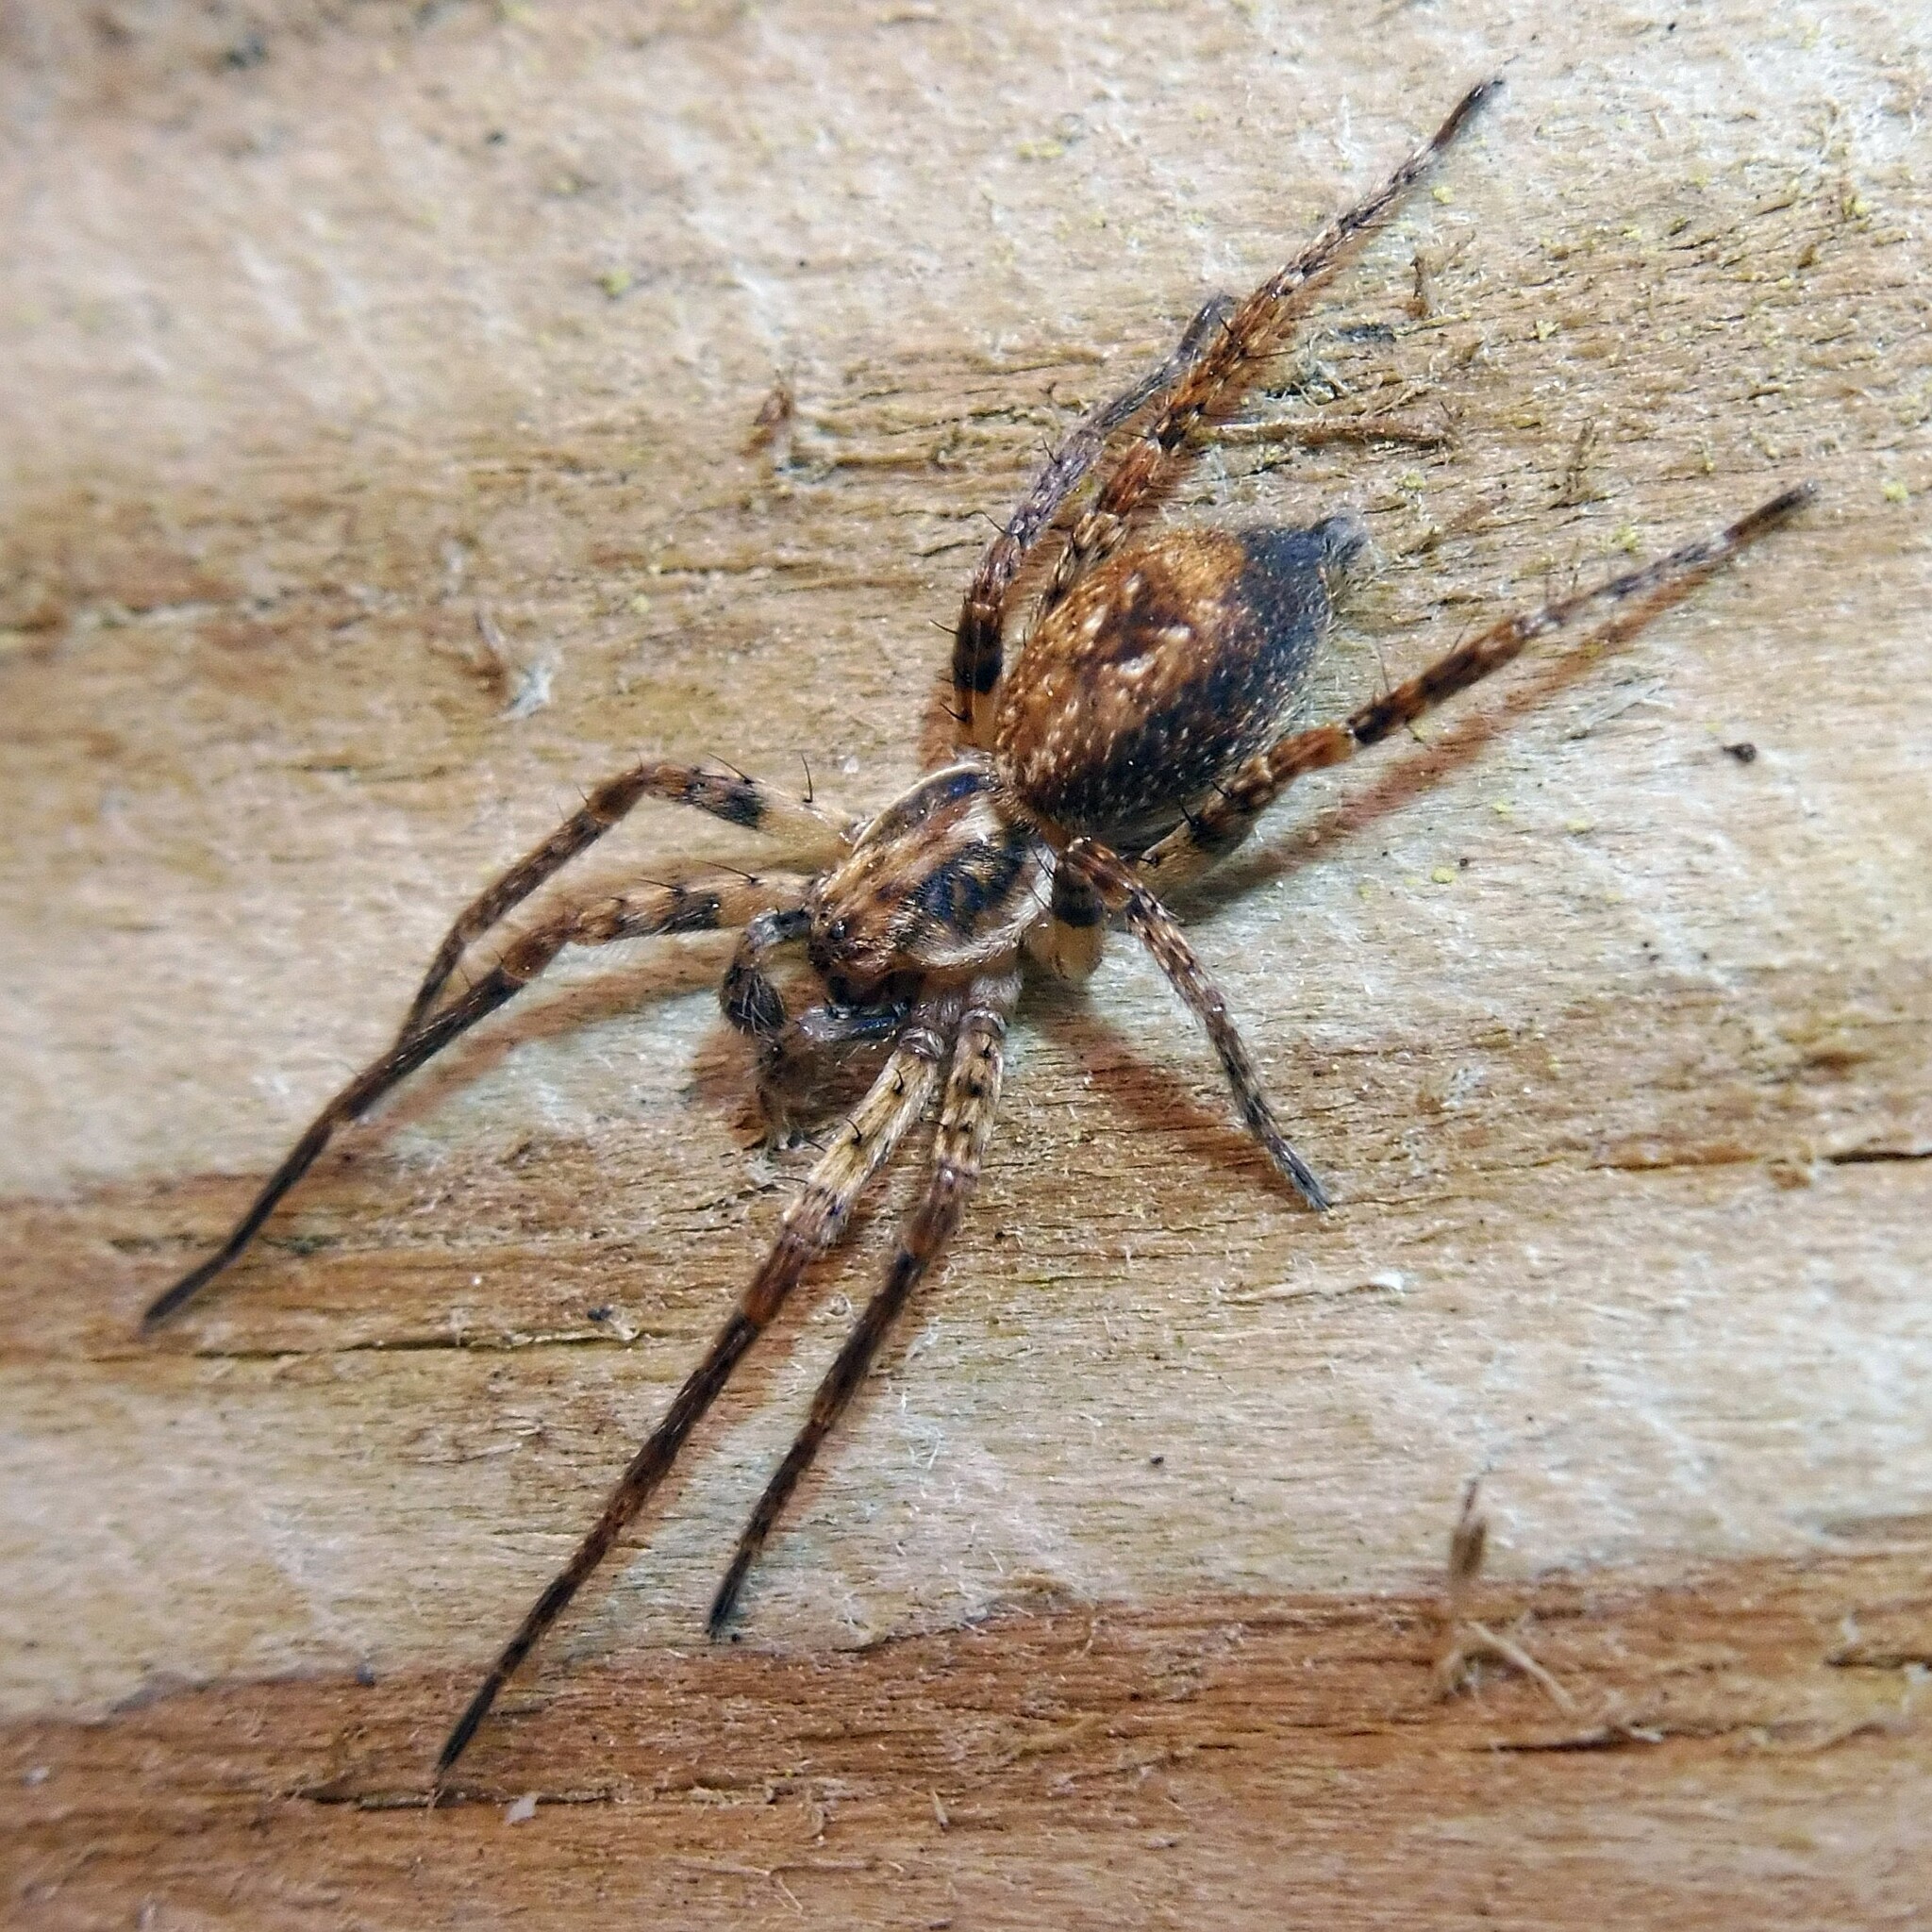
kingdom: Animalia
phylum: Arthropoda
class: Arachnida
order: Araneae
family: Anyphaenidae
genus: Anyphaena
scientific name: Anyphaena accentuata
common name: Buzzing spider
